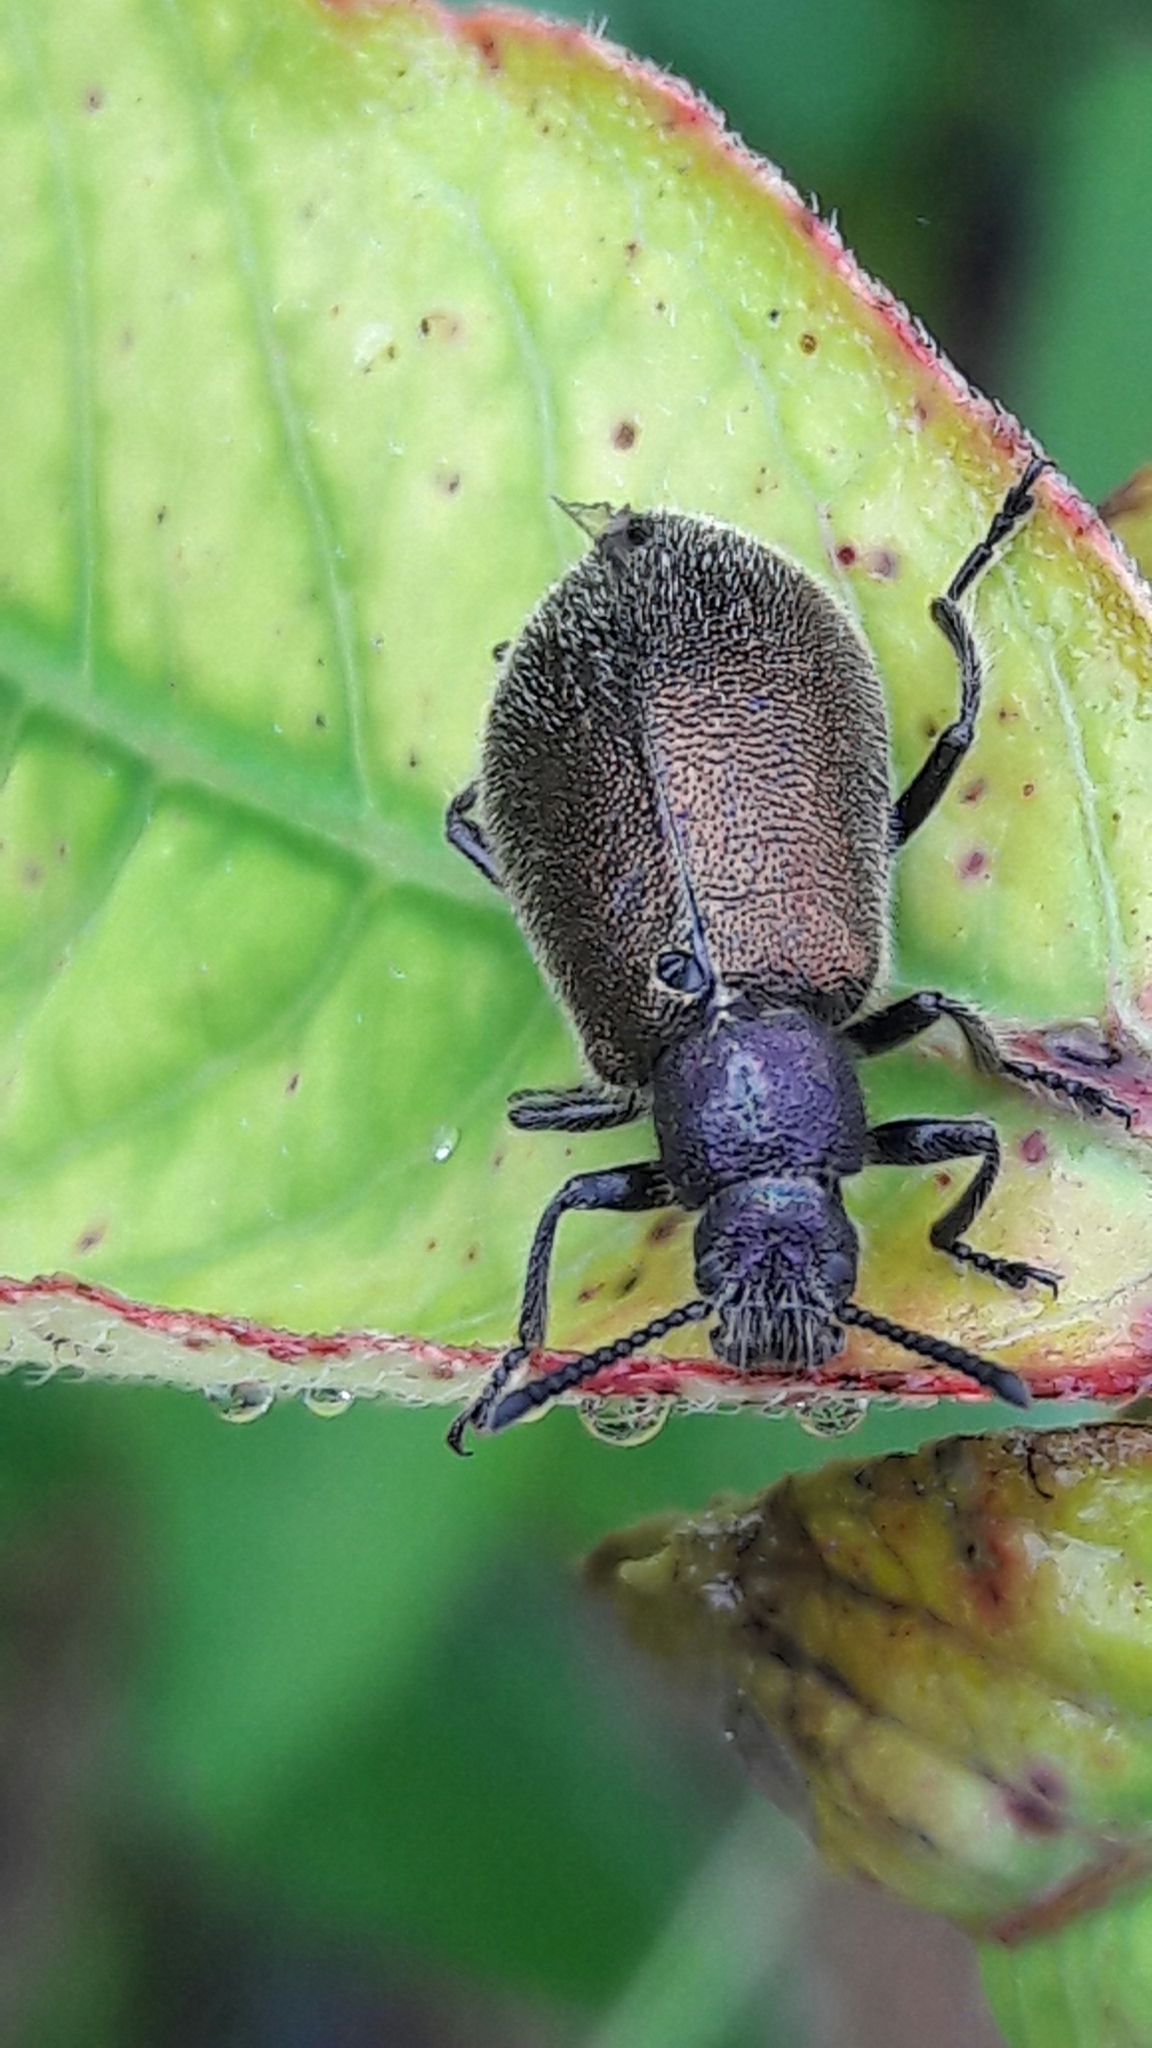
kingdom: Animalia
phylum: Arthropoda
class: Insecta
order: Coleoptera
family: Tenebrionidae
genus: Lagria
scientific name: Lagria villosa
